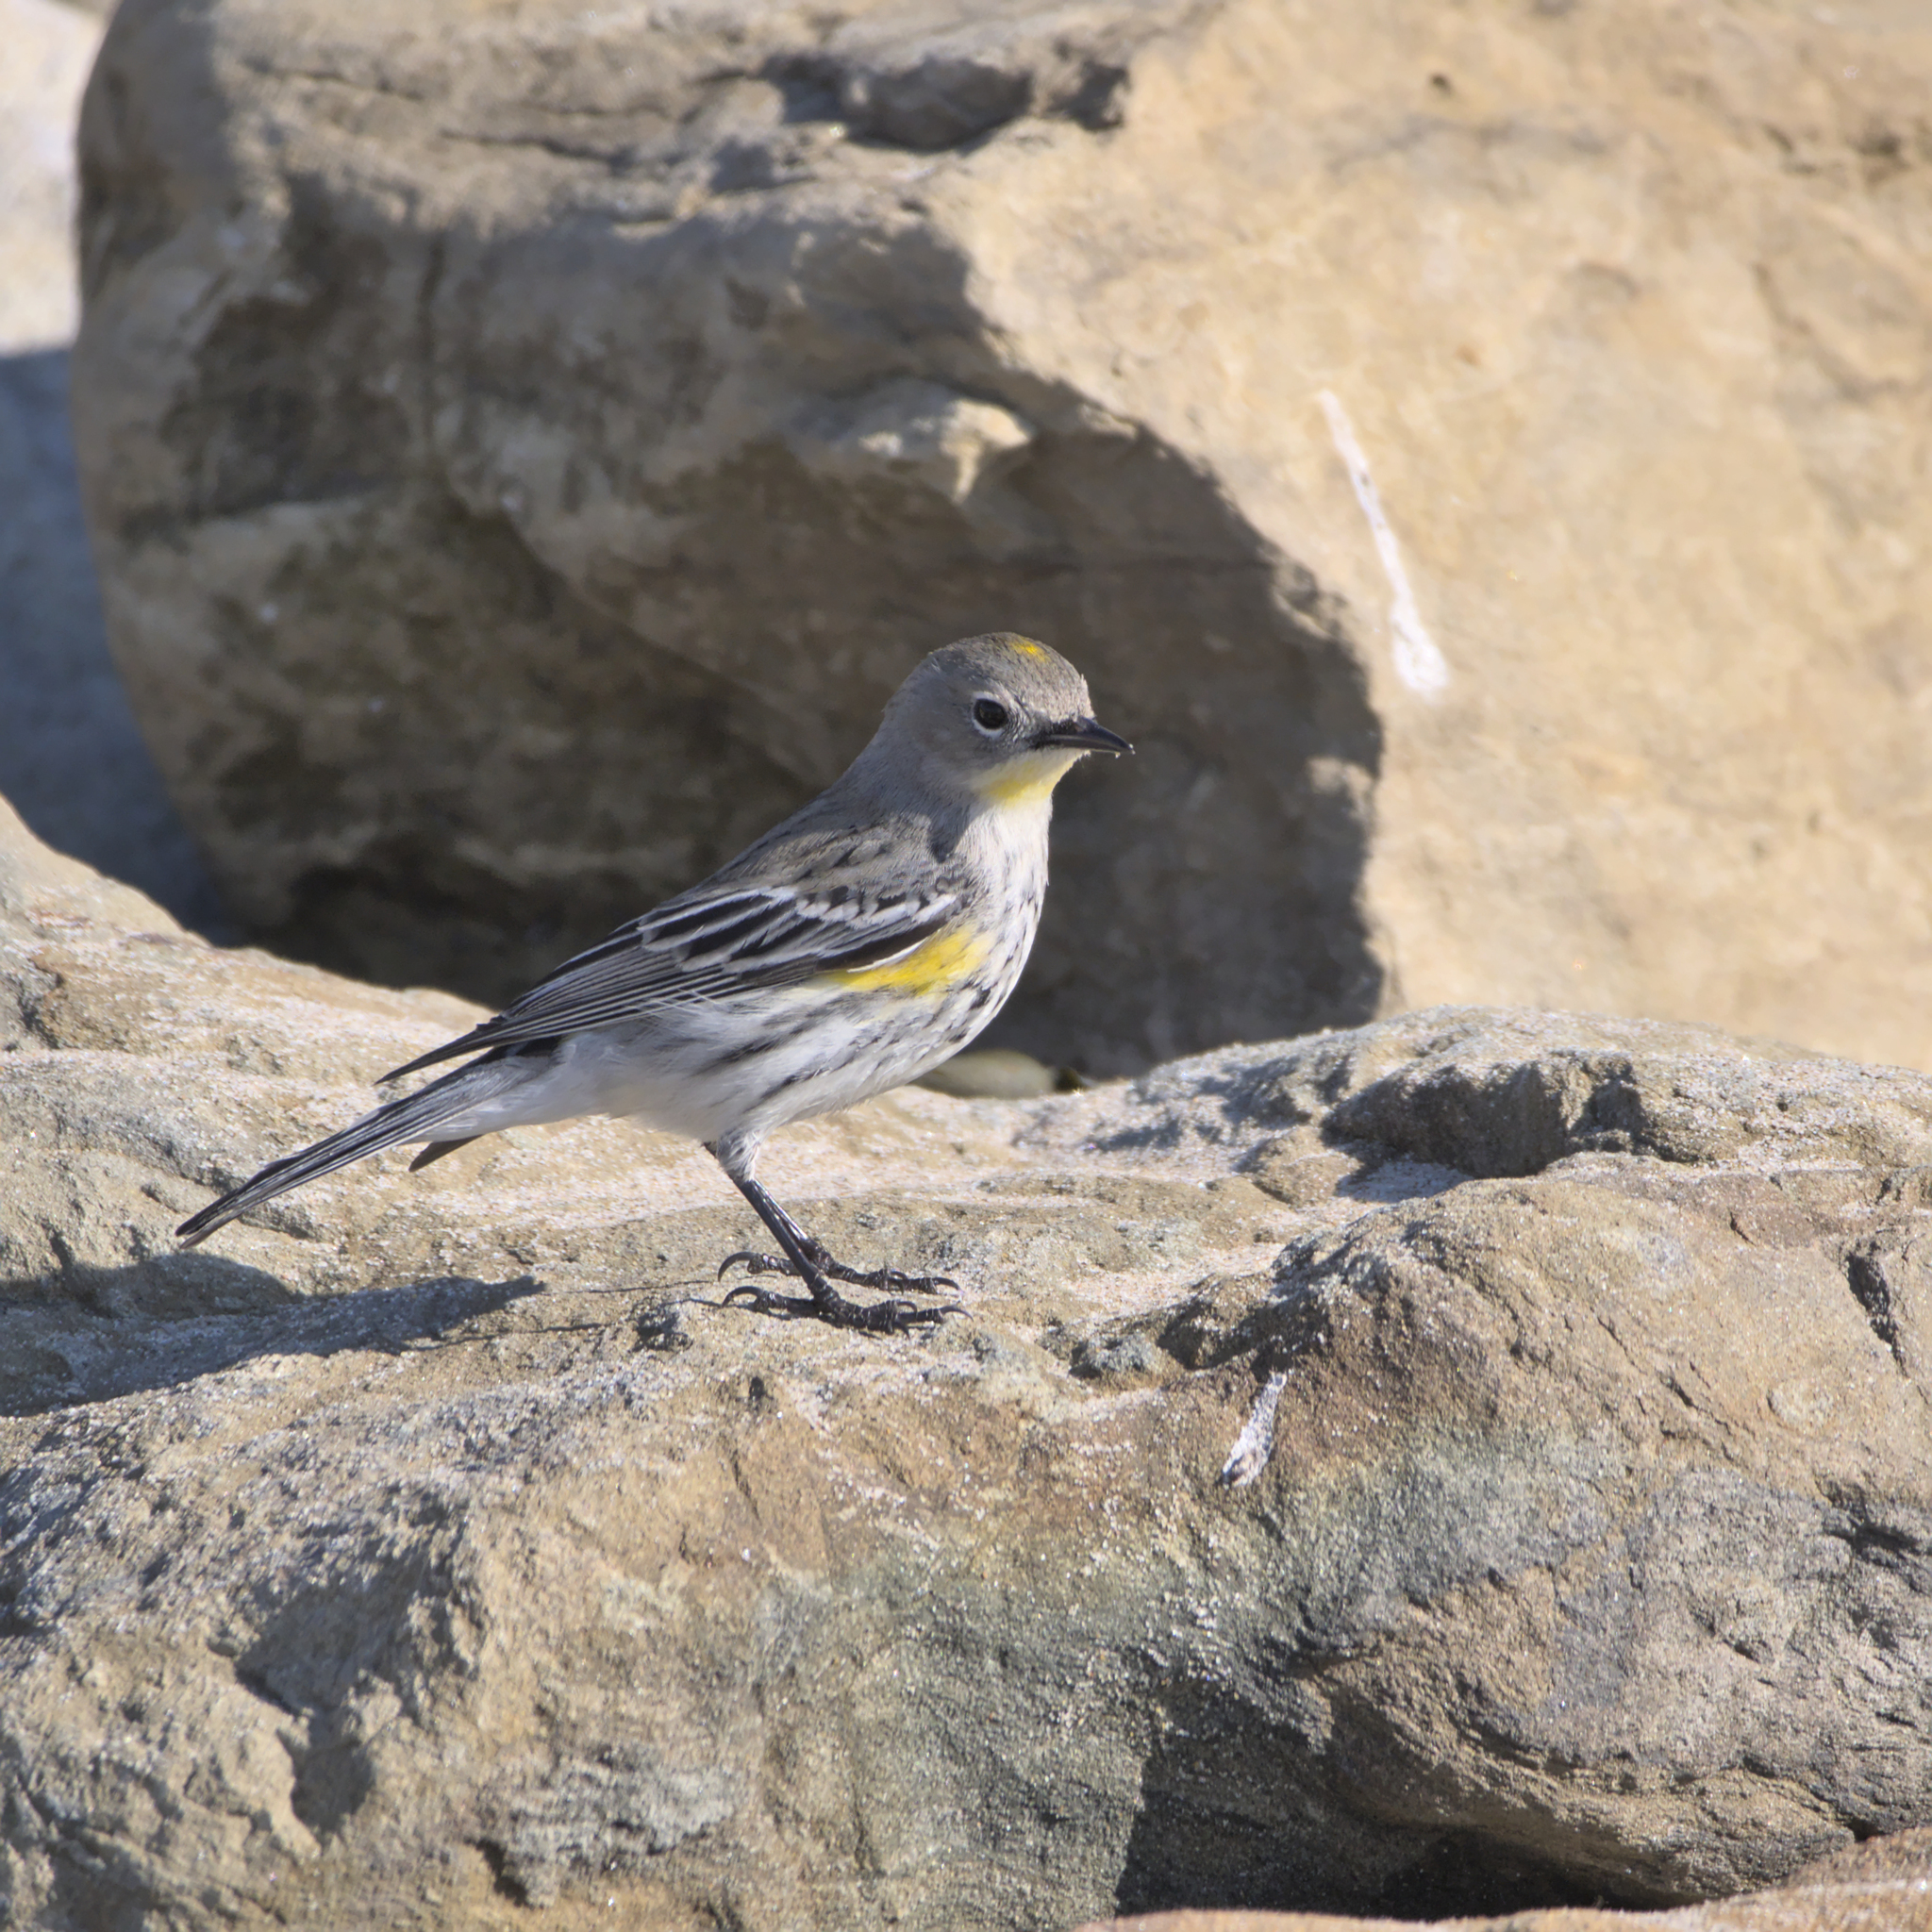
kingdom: Animalia
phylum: Chordata
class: Aves
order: Passeriformes
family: Parulidae
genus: Setophaga
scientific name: Setophaga coronata
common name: Myrtle warbler
